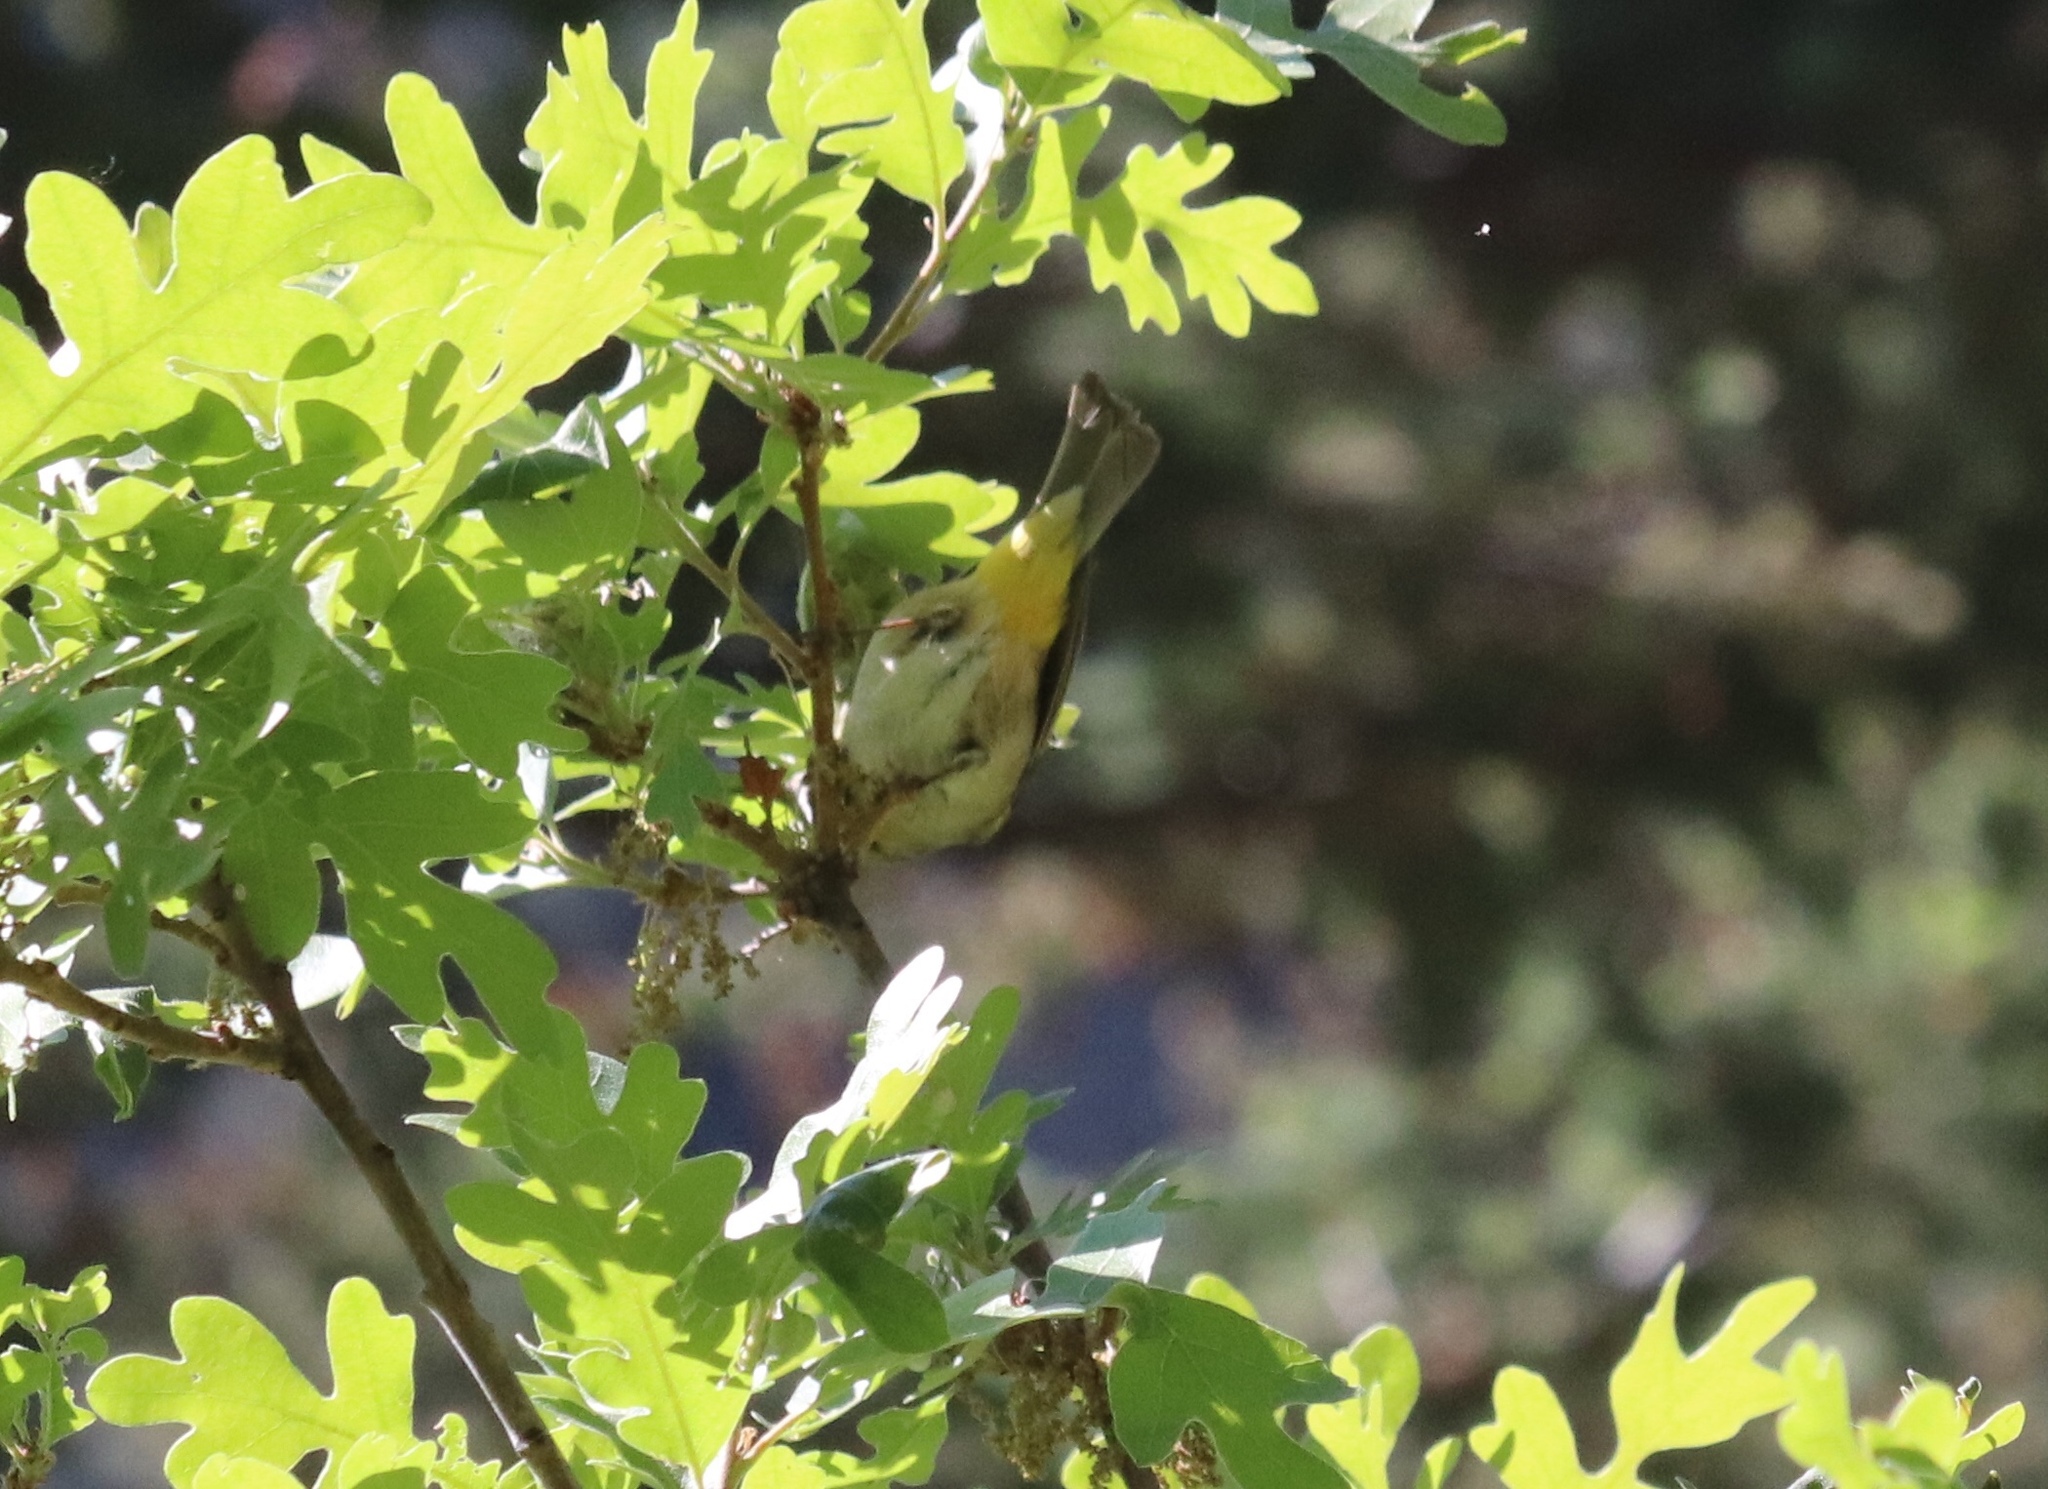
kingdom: Animalia
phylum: Chordata
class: Aves
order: Passeriformes
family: Parulidae
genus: Leiothlypis
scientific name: Leiothlypis virginiae
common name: Virginia's warbler
